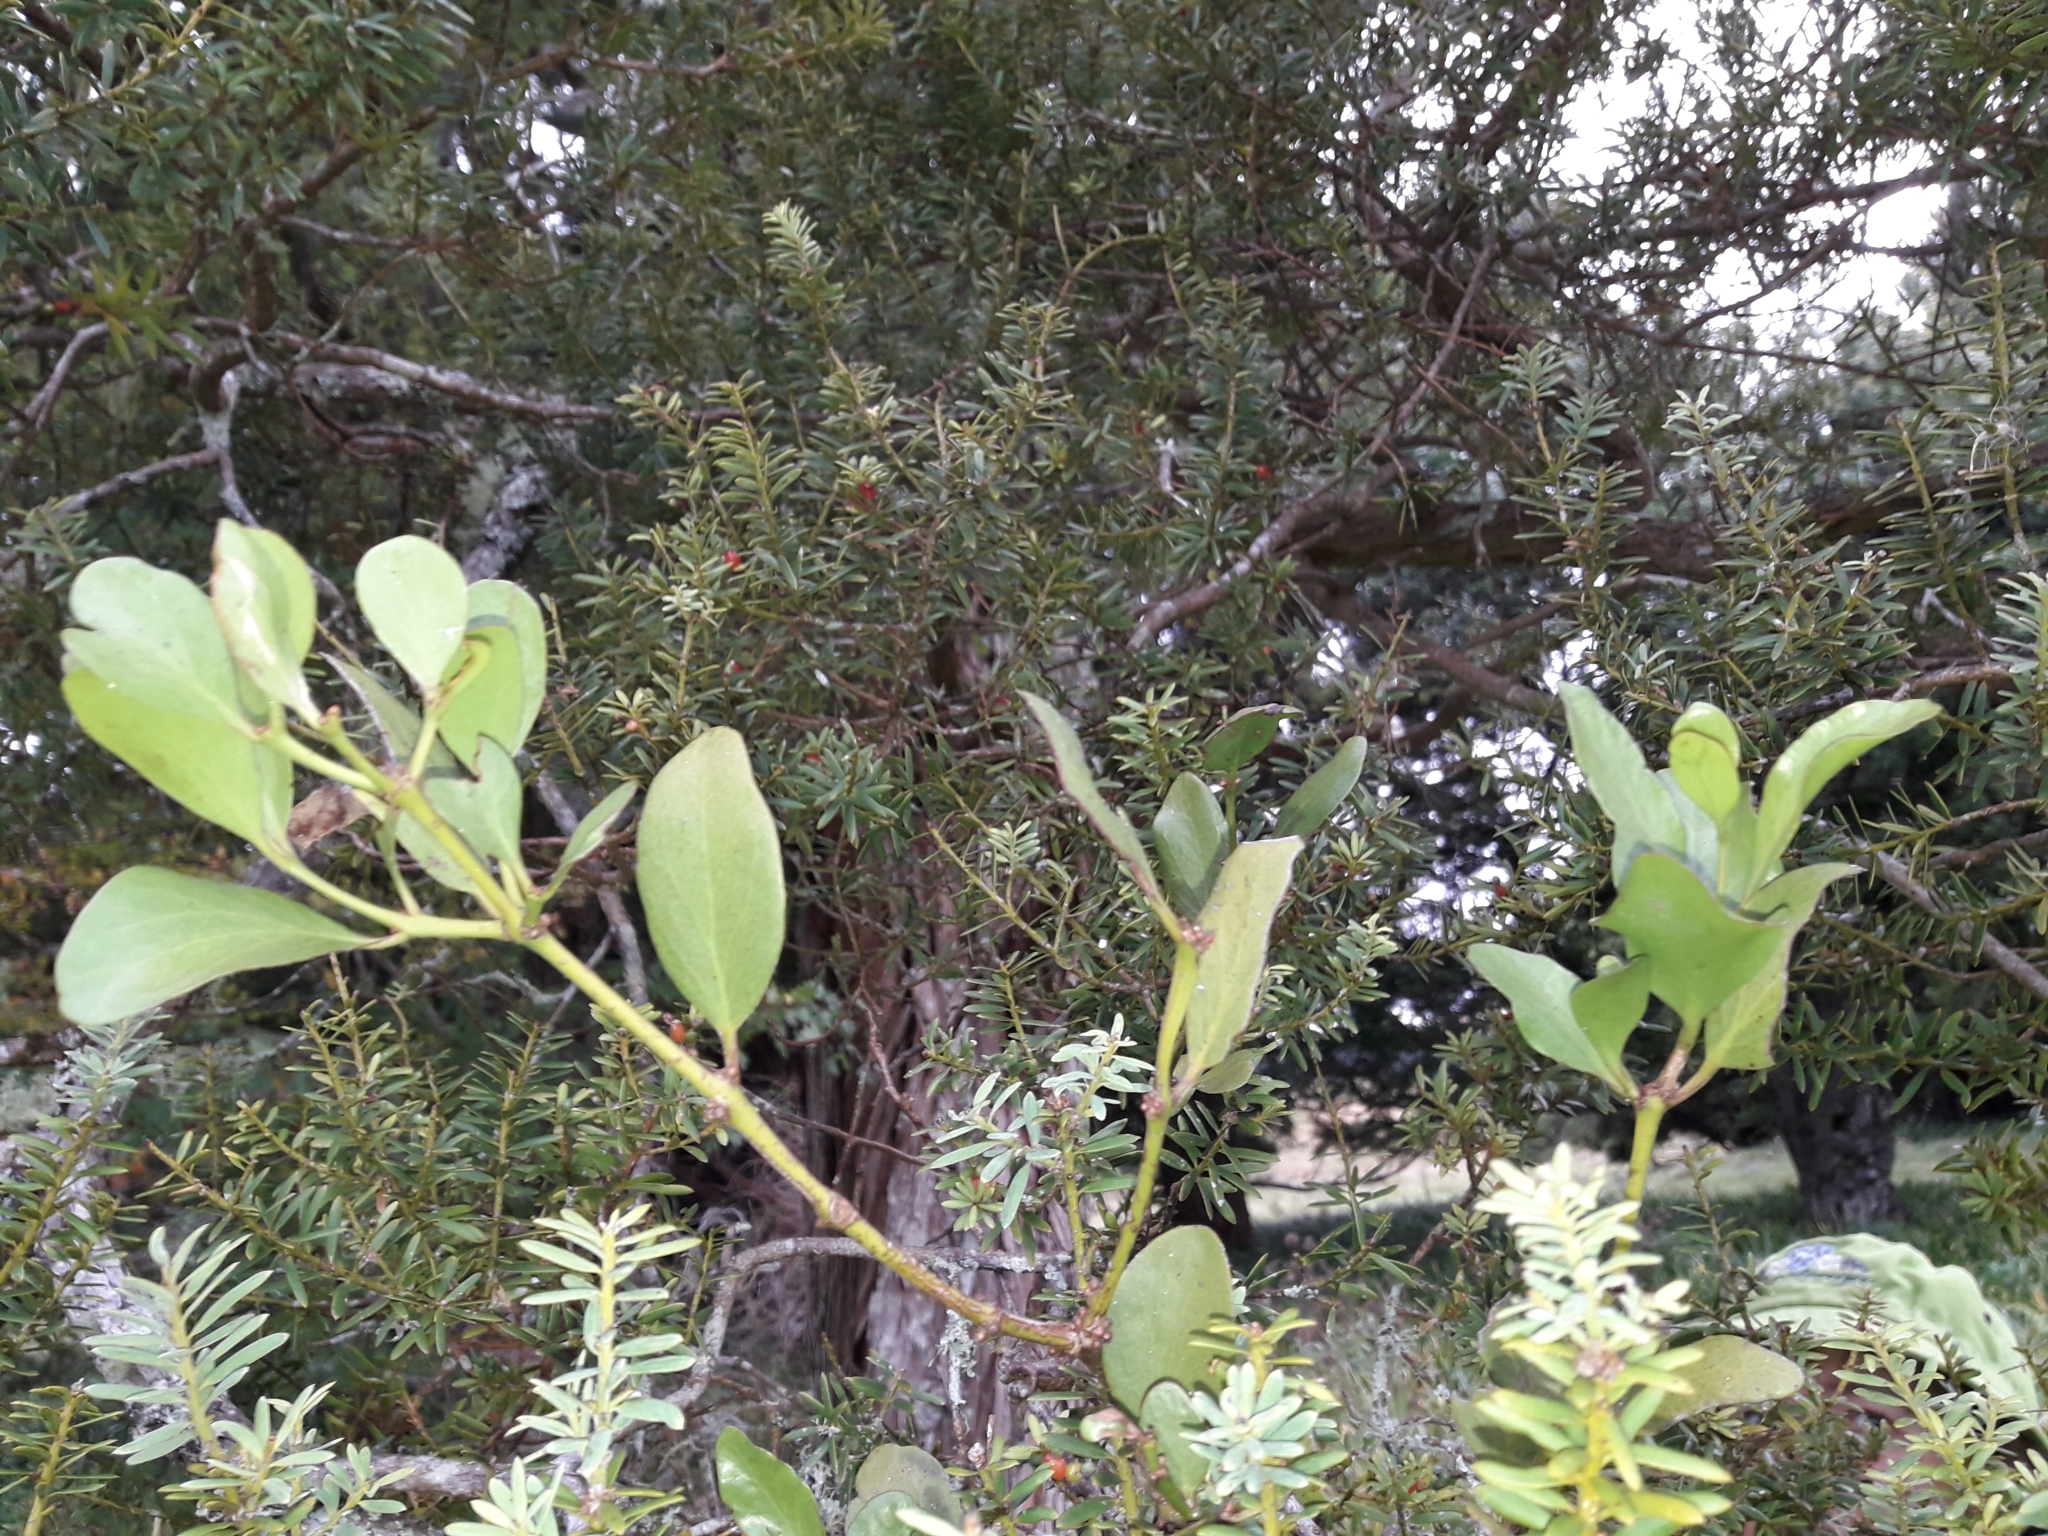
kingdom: Plantae
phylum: Tracheophyta
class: Magnoliopsida
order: Santalales
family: Loranthaceae
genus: Ileostylus
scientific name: Ileostylus micranthus
